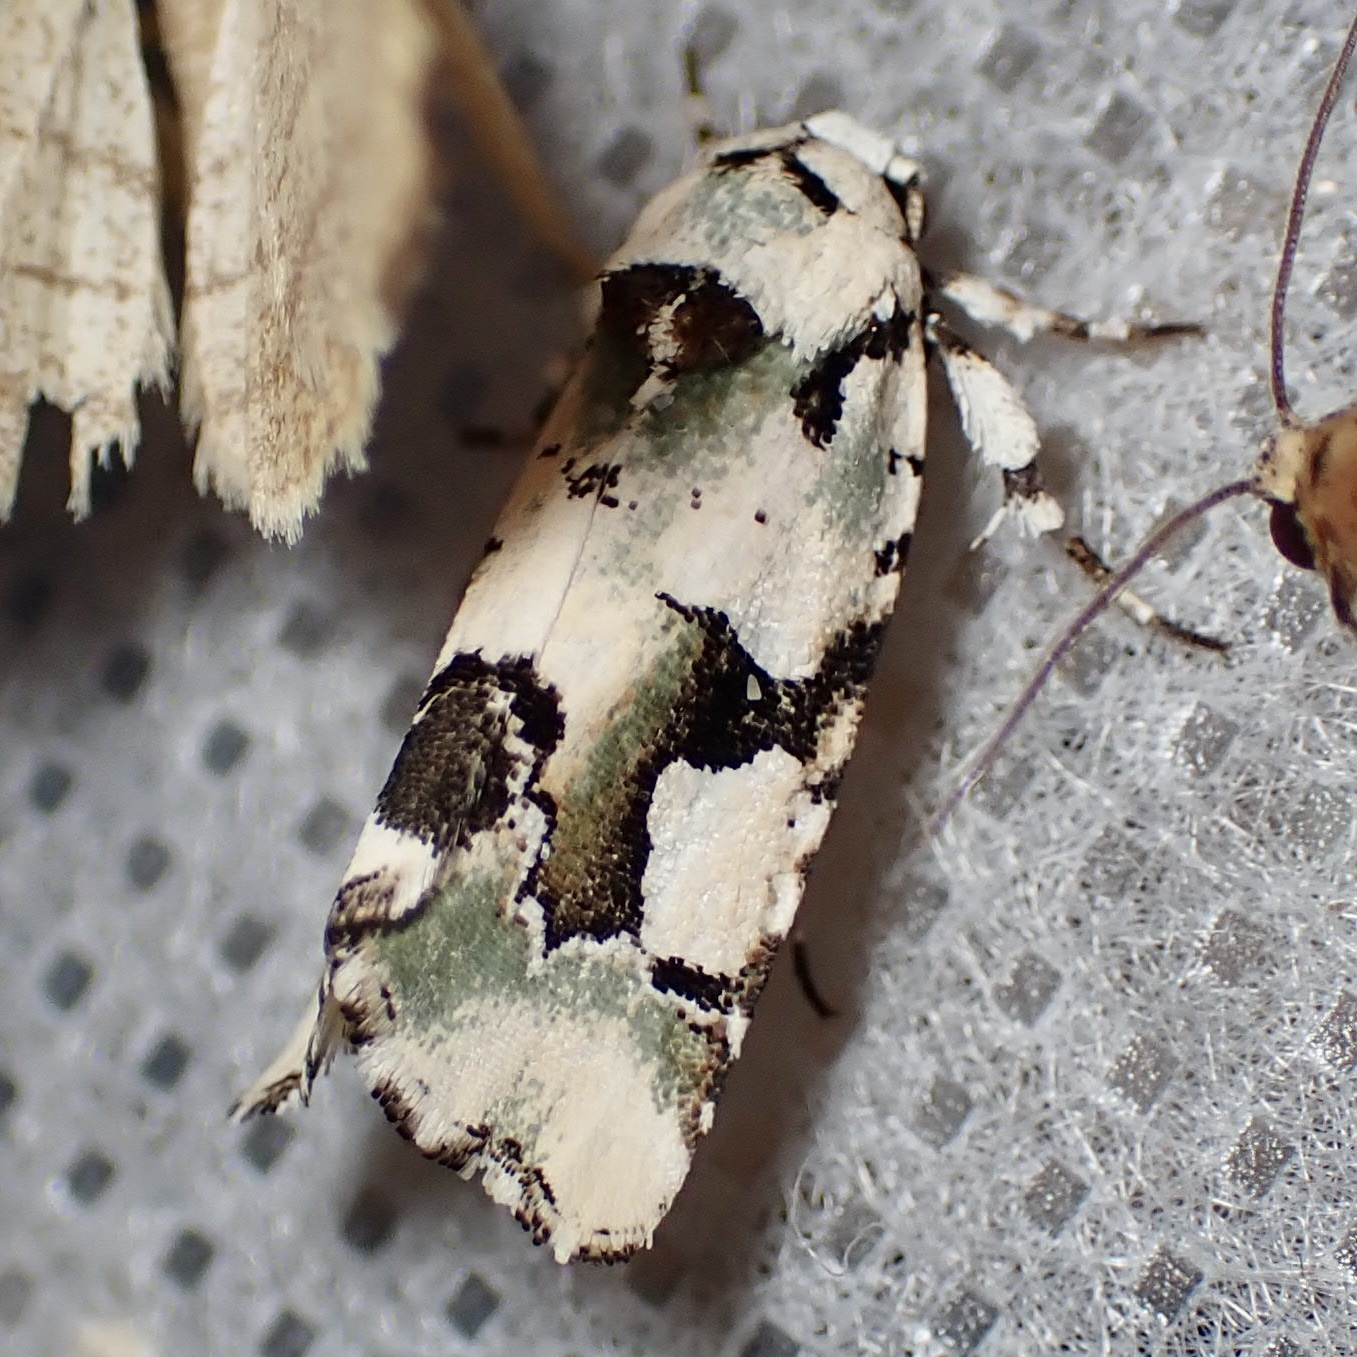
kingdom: Animalia
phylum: Arthropoda
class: Insecta
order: Lepidoptera
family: Noctuidae
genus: Emarginea
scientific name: Emarginea percara
